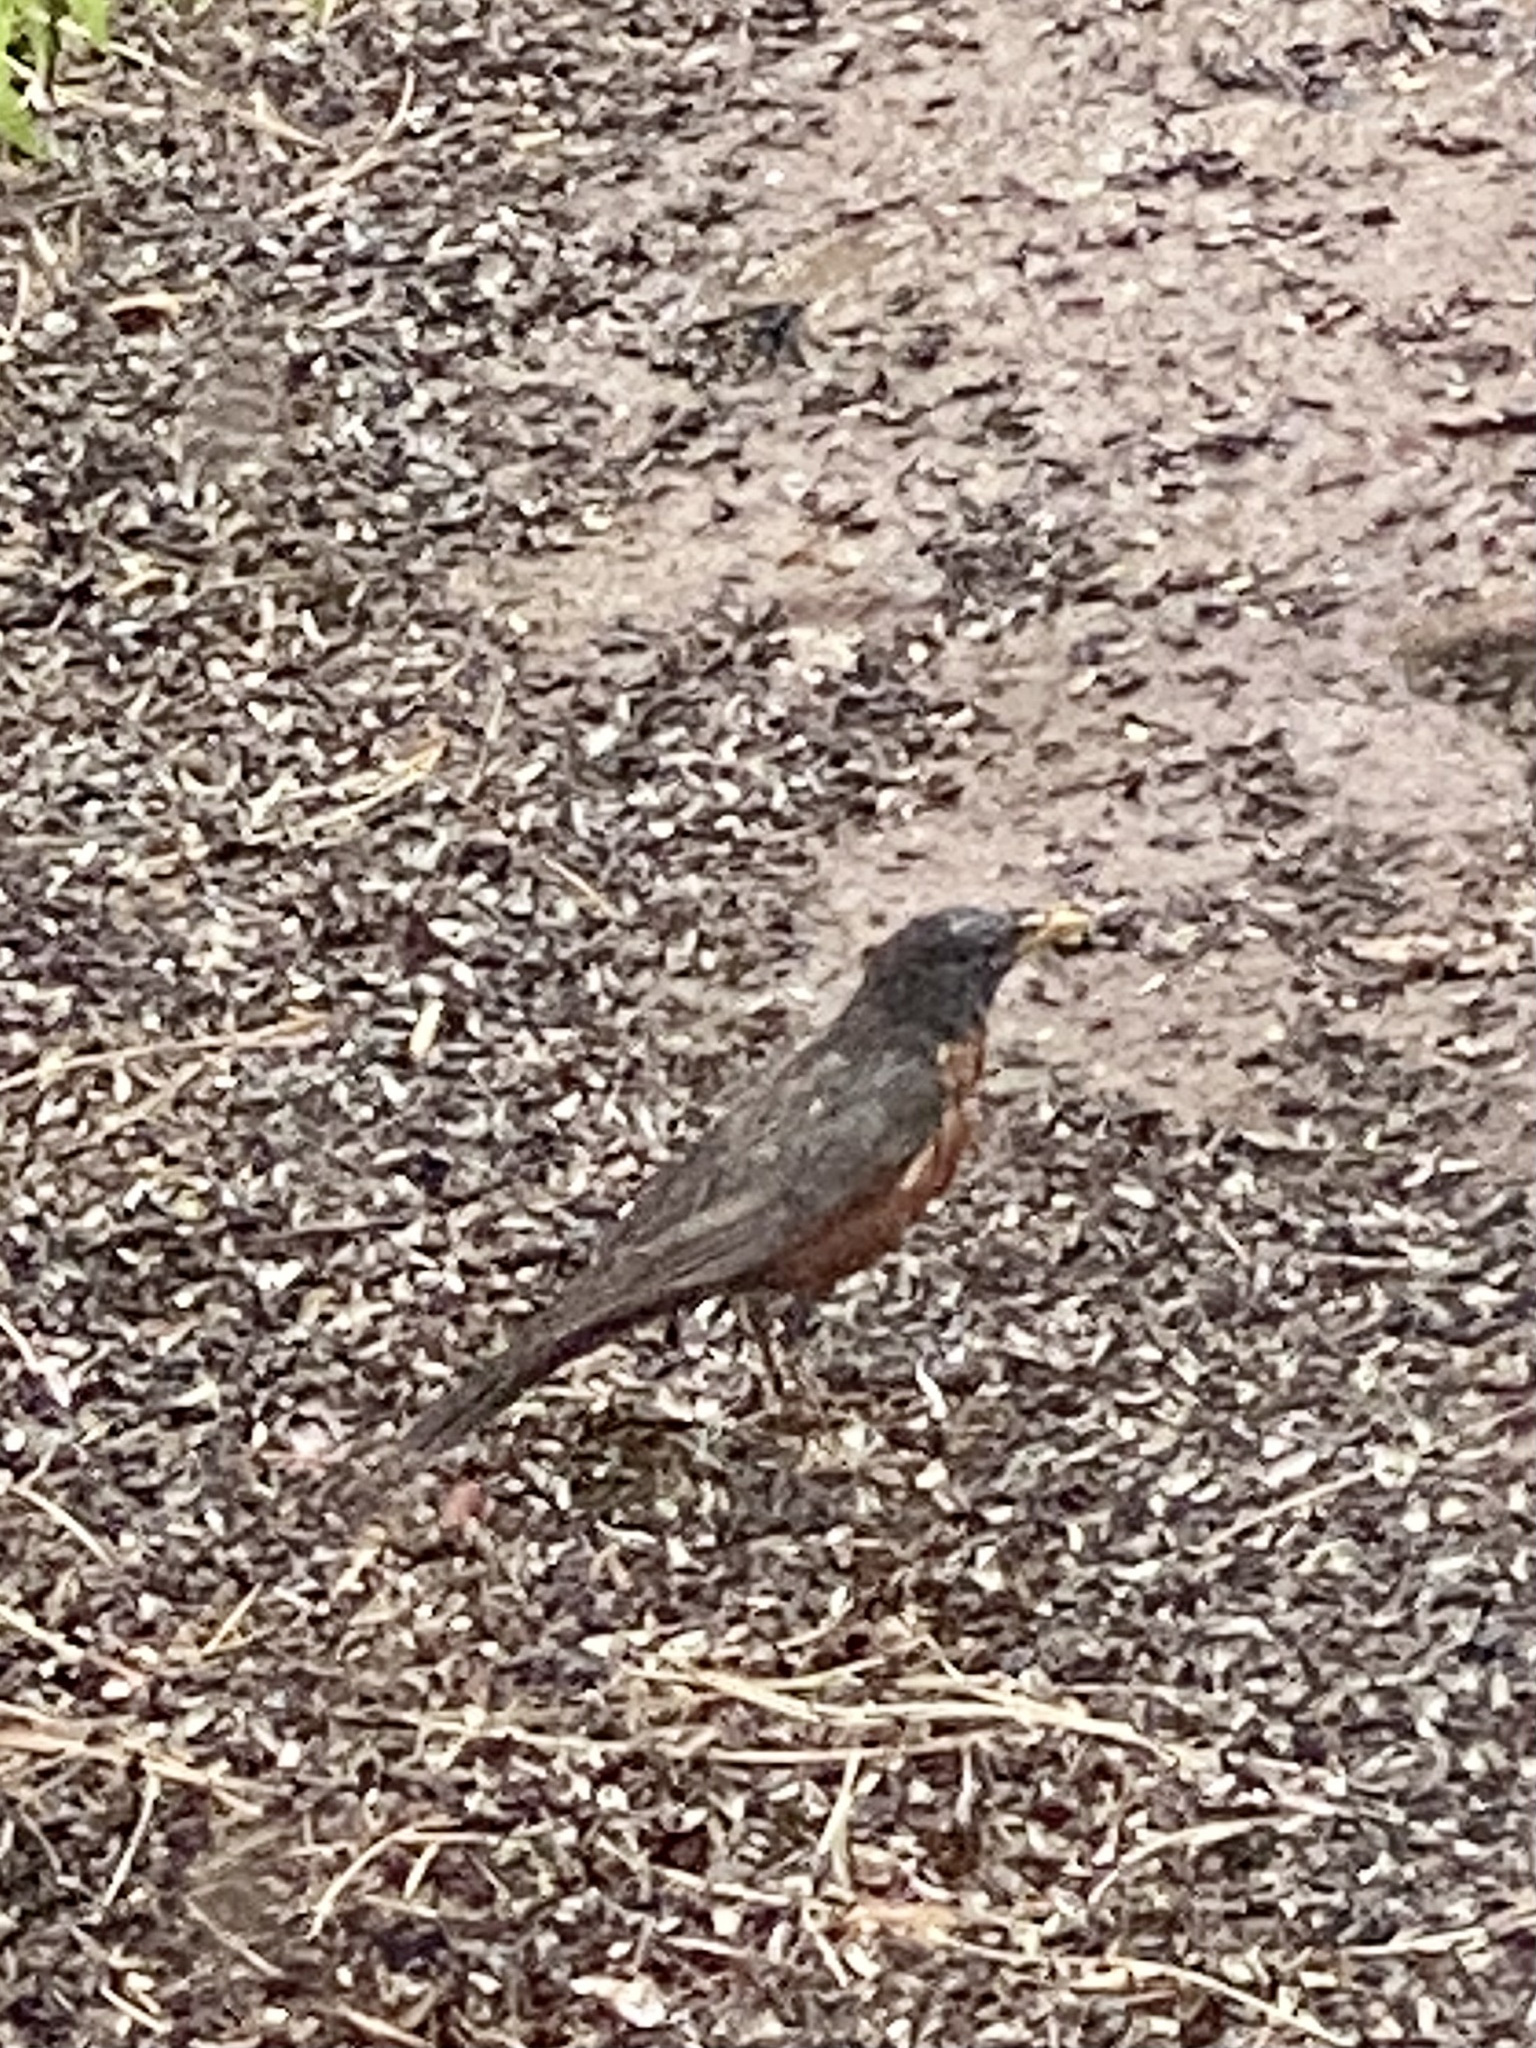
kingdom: Animalia
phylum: Chordata
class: Aves
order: Passeriformes
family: Turdidae
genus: Turdus
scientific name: Turdus migratorius
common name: American robin
